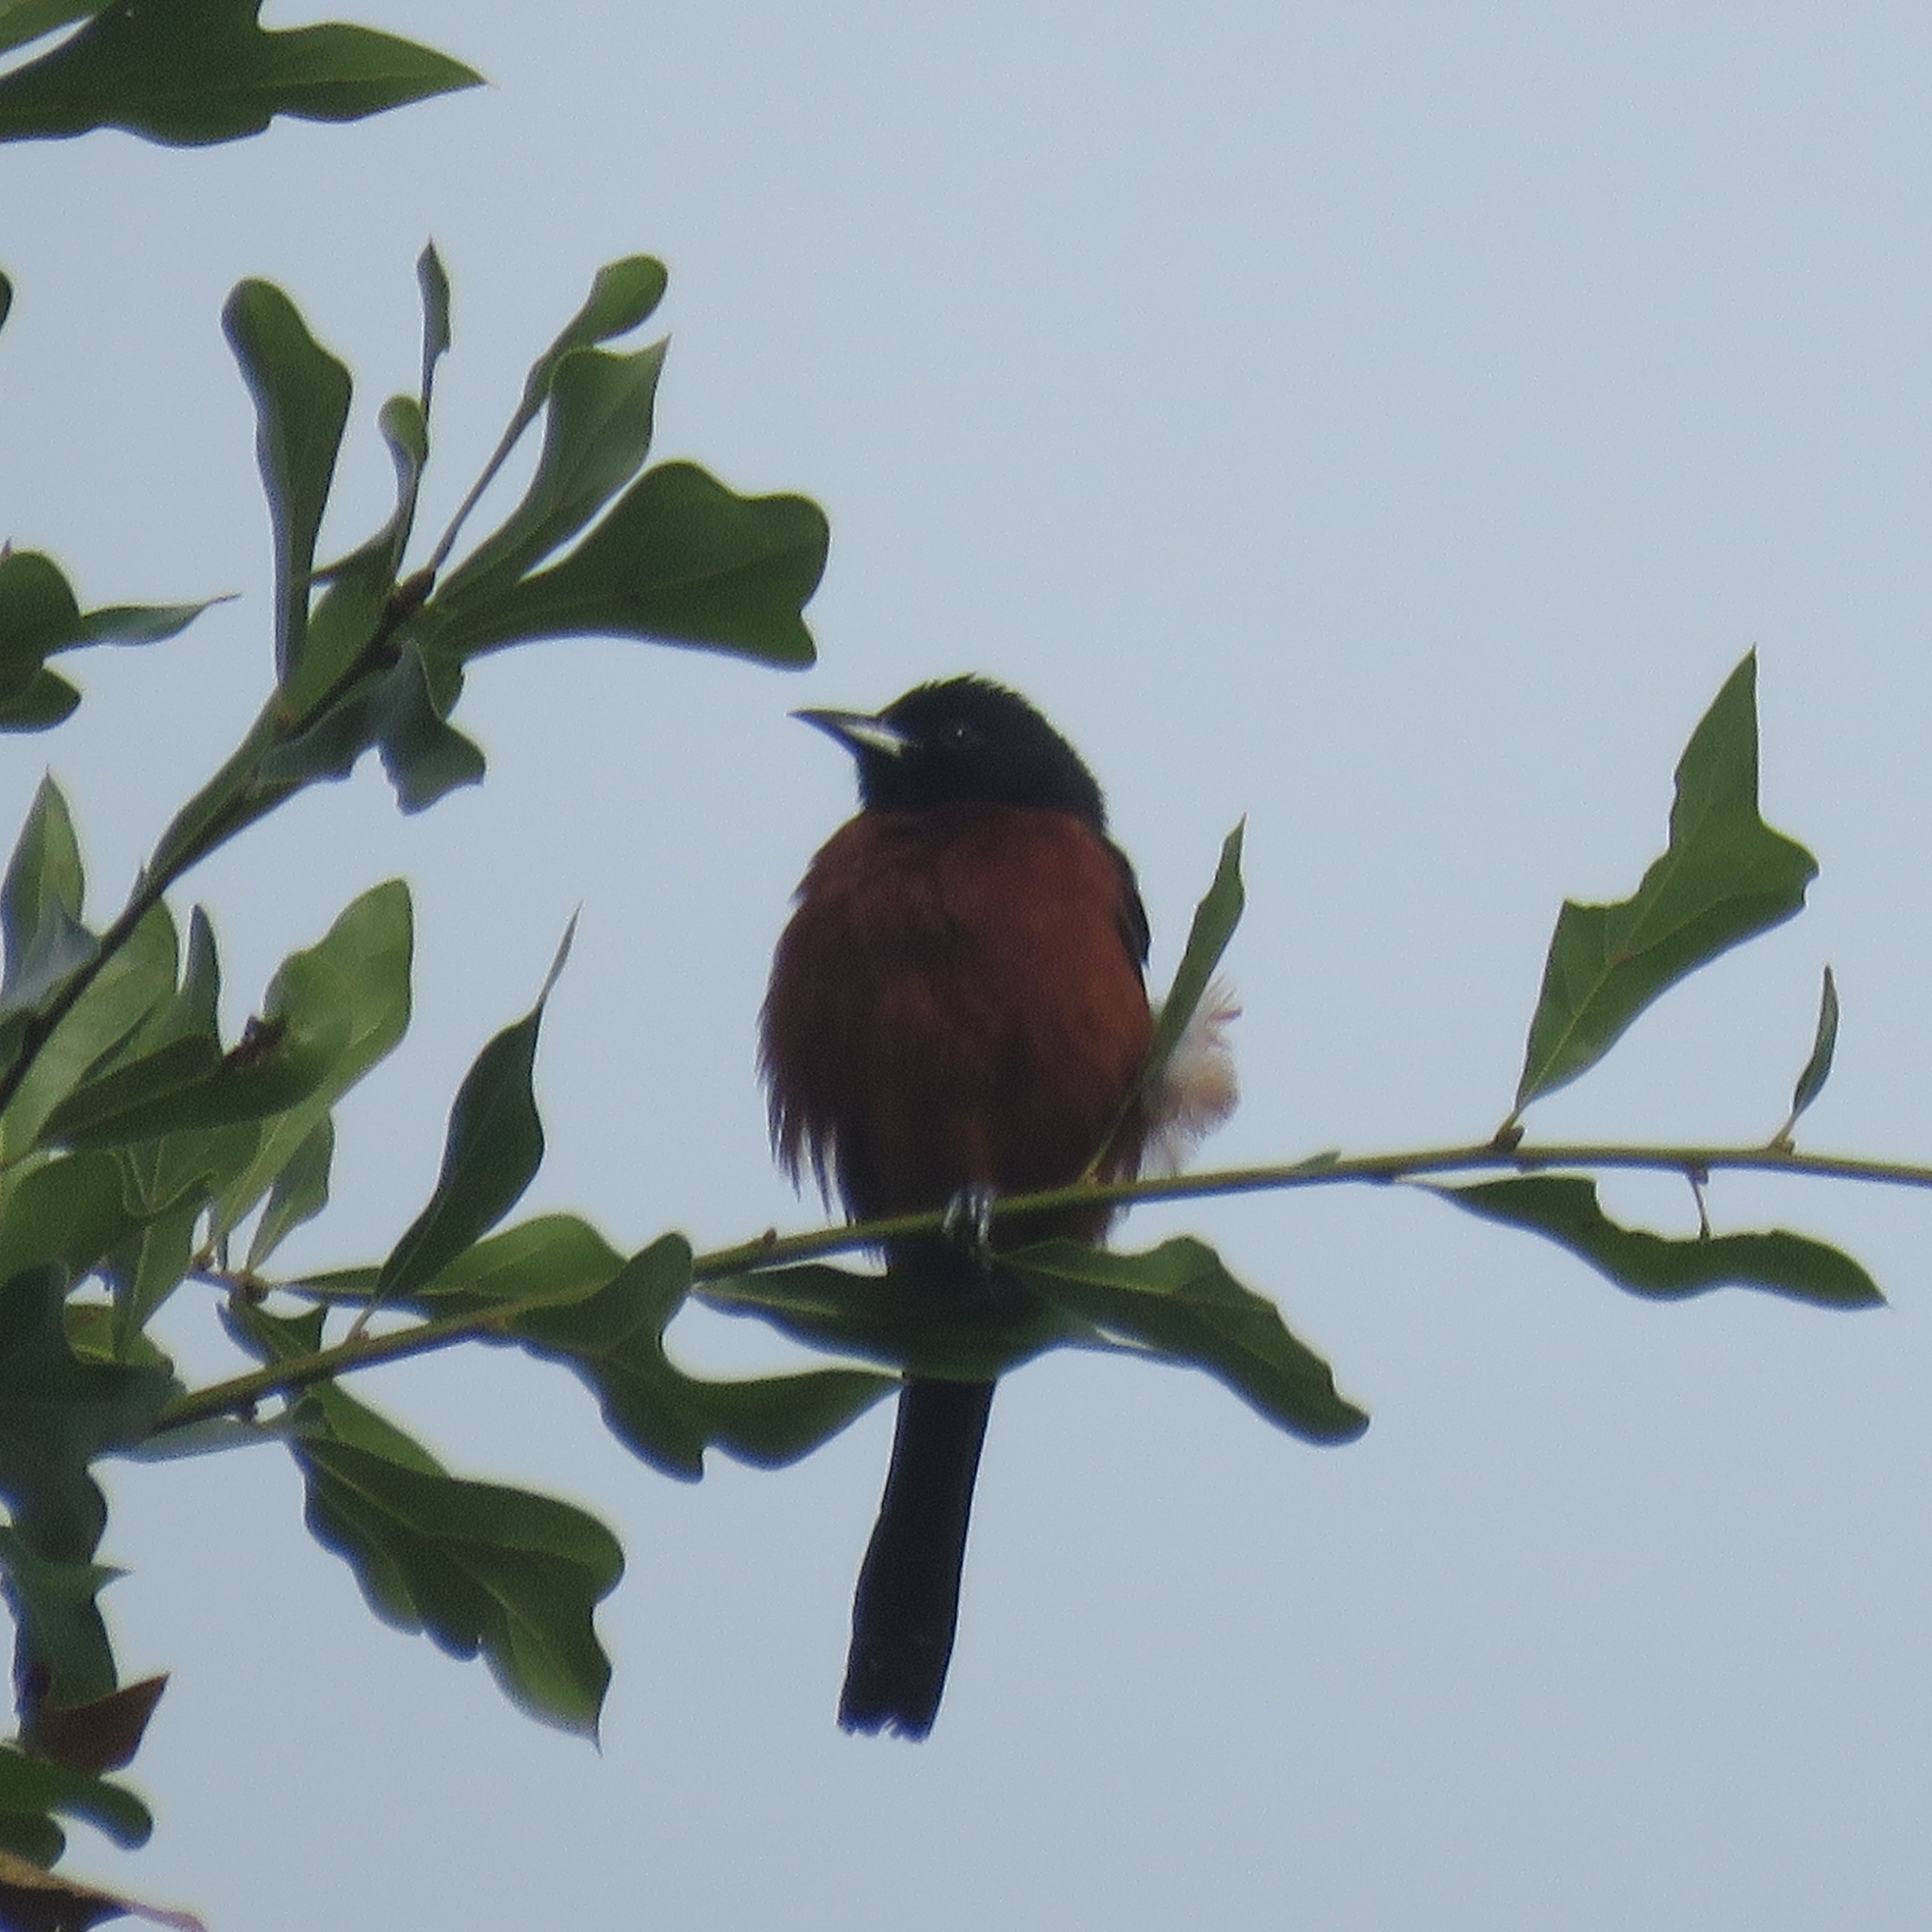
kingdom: Animalia
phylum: Chordata
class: Aves
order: Passeriformes
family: Icteridae
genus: Icterus
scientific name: Icterus spurius
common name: Orchard oriole
